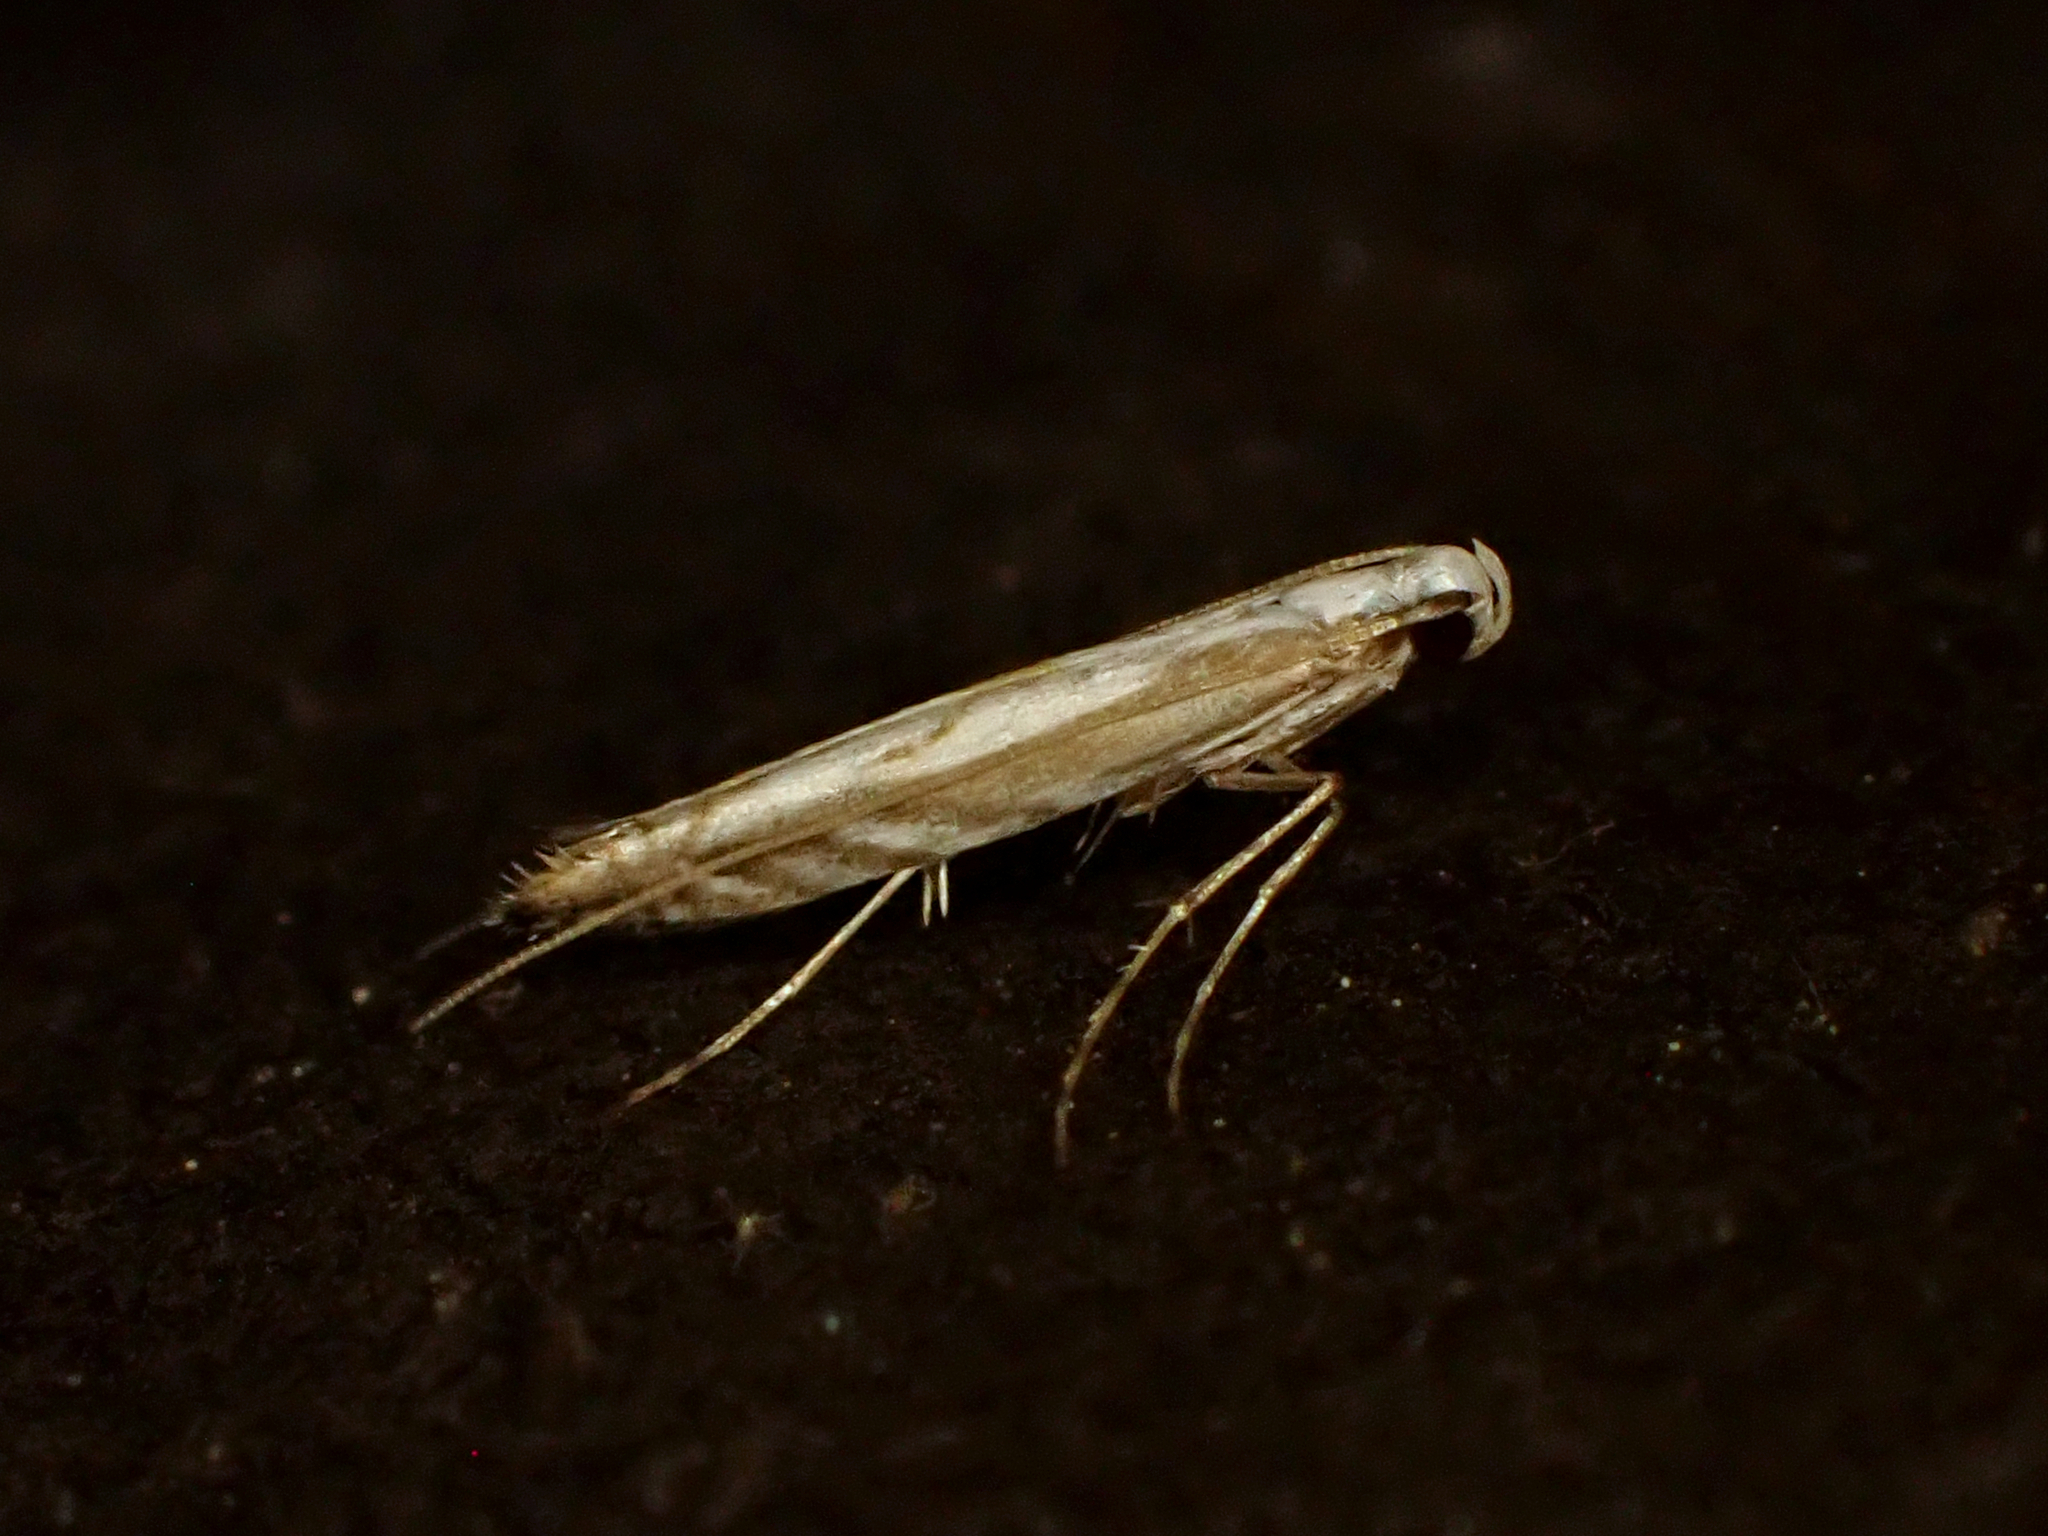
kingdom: Animalia
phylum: Arthropoda
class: Insecta
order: Lepidoptera
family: Gracillariidae
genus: Acrocercops
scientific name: Acrocercops leucotoma
